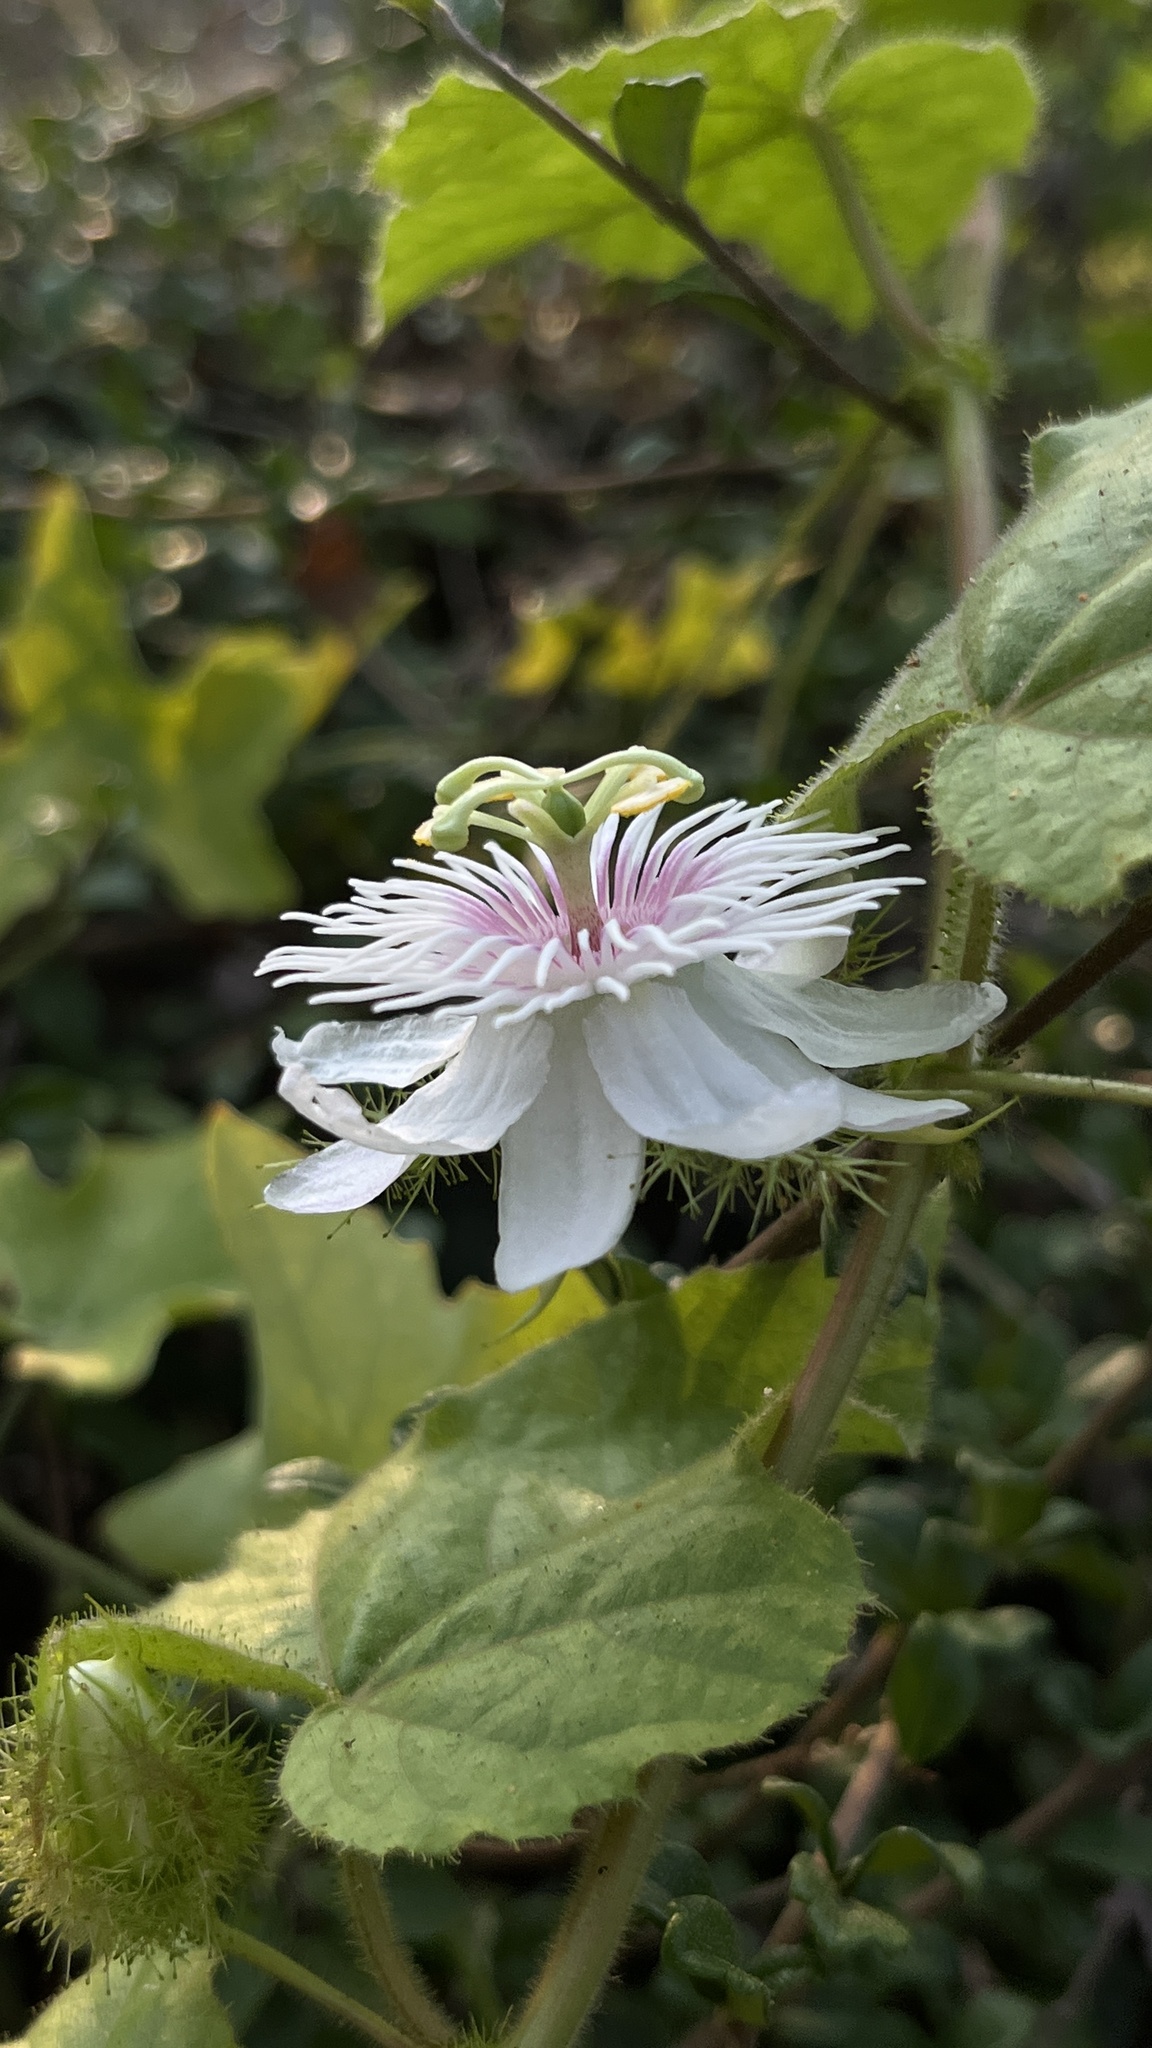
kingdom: Plantae
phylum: Tracheophyta
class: Magnoliopsida
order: Malpighiales
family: Passifloraceae
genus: Passiflora
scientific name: Passiflora foetida
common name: Fetid passionflower
